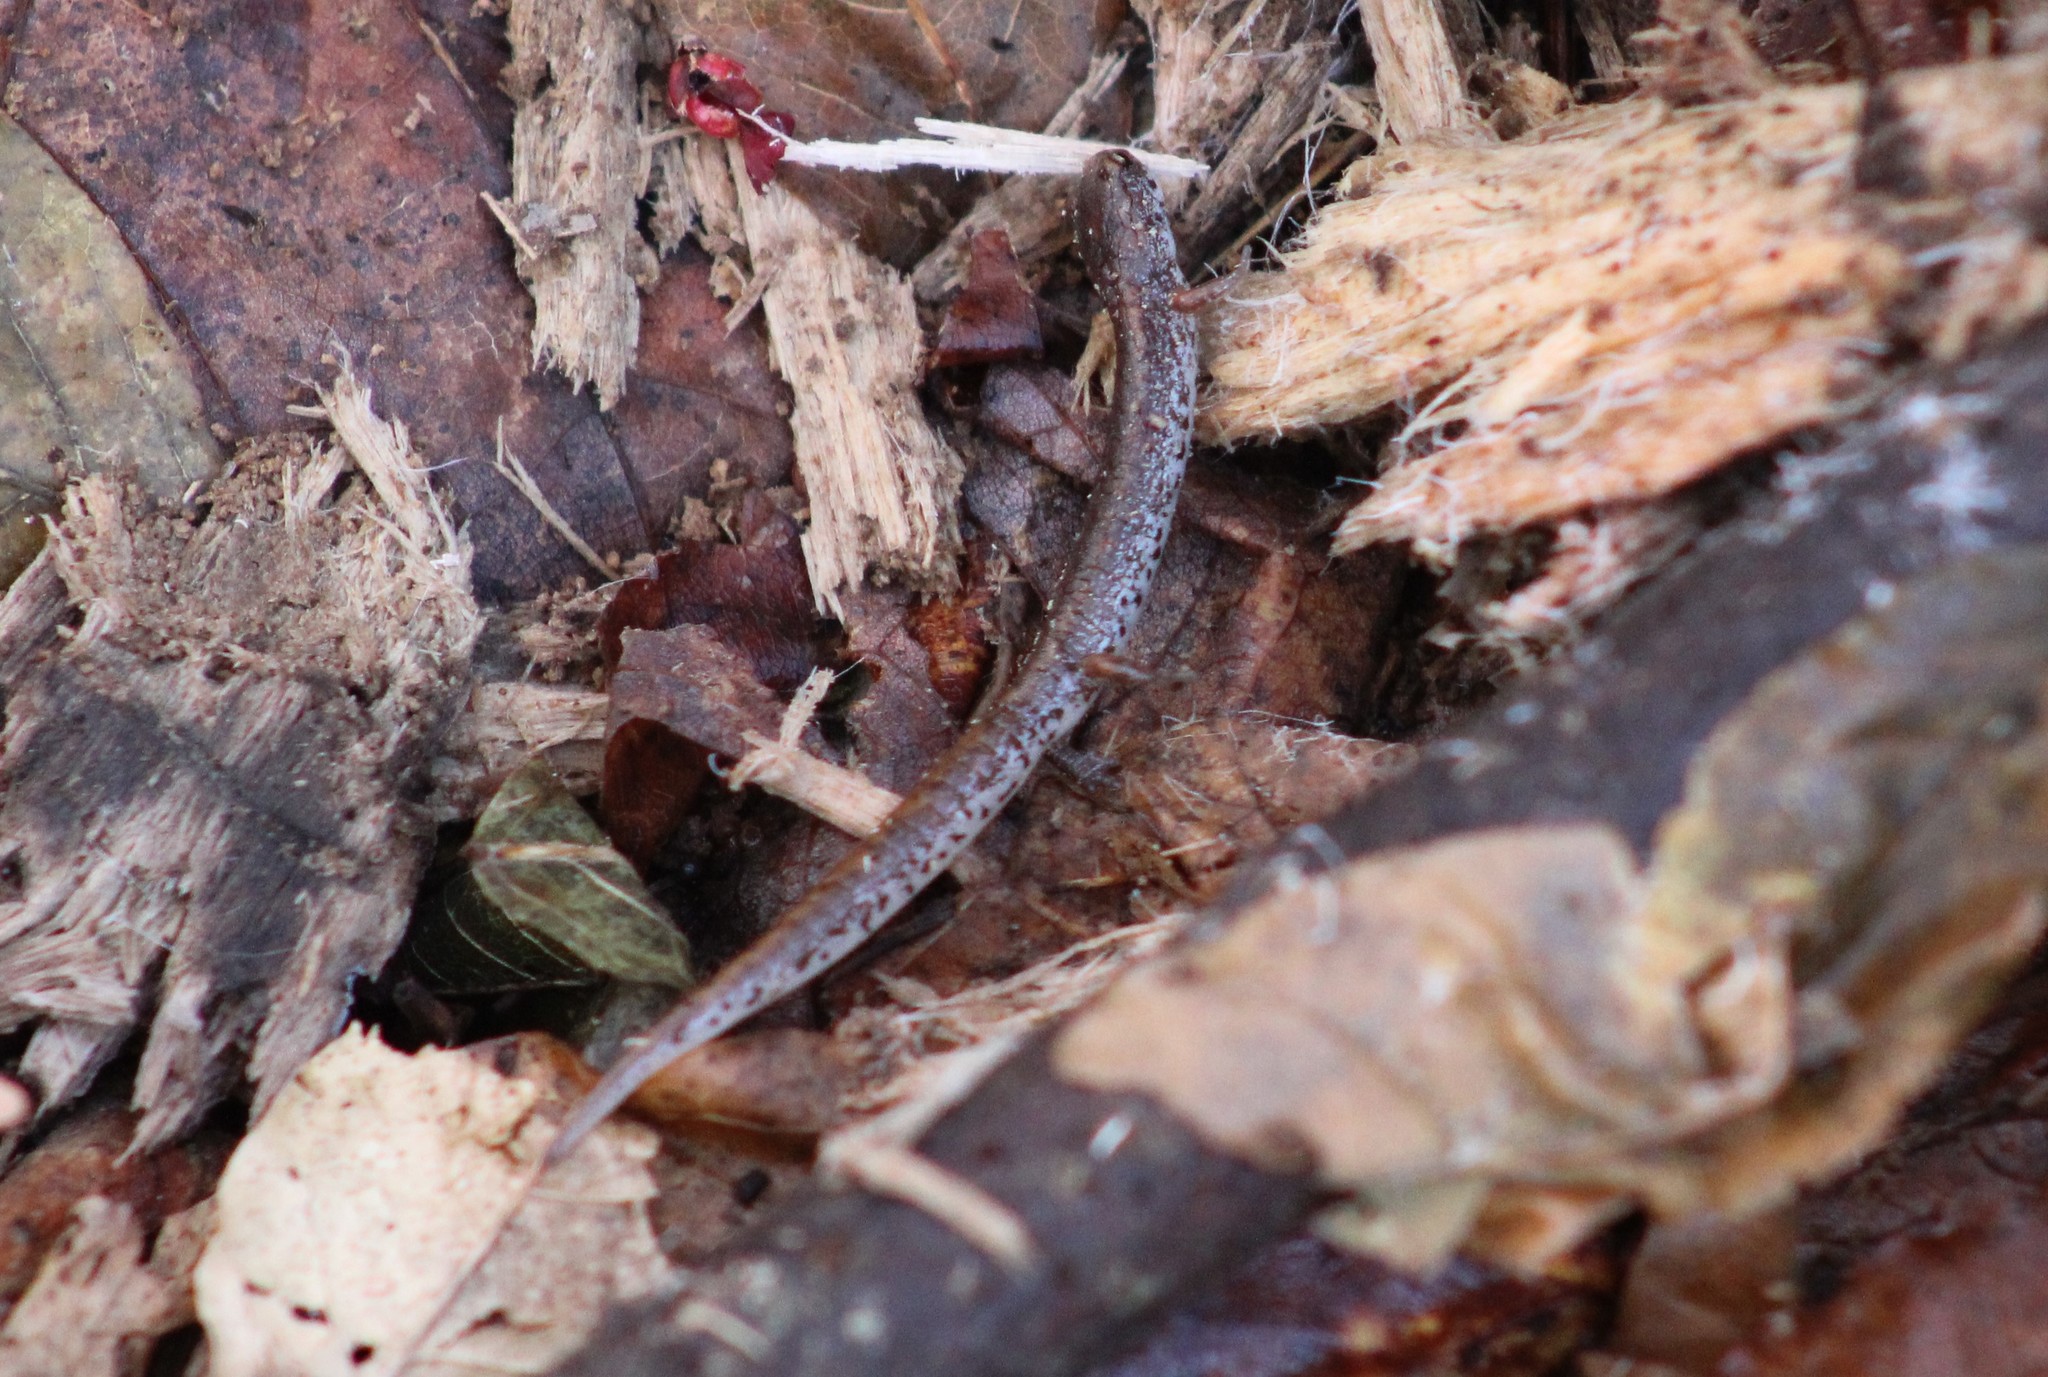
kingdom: Animalia
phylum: Chordata
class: Amphibia
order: Caudata
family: Plethodontidae
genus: Hemidactylium
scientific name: Hemidactylium scutatum
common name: Four-toed salamander
